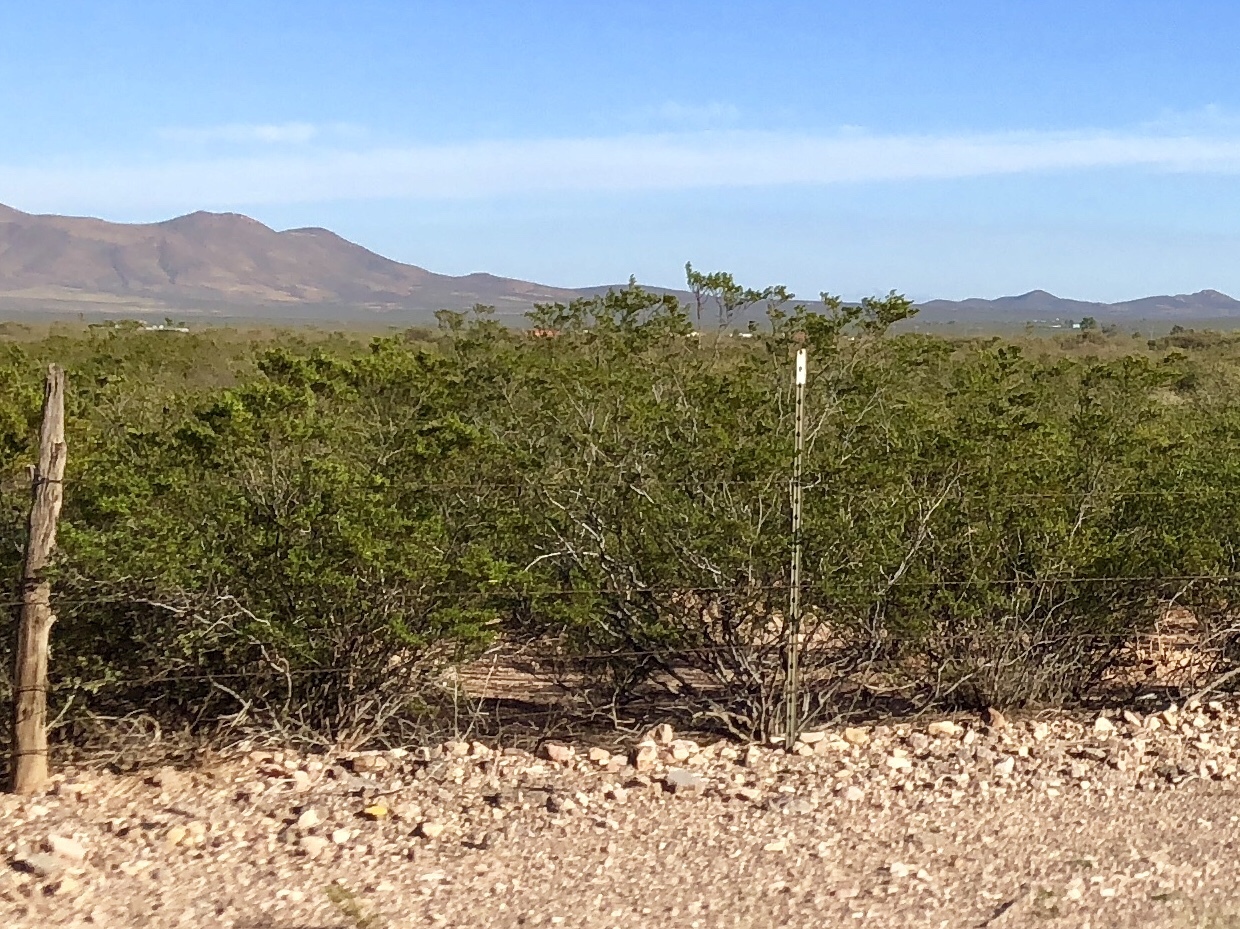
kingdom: Plantae
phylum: Tracheophyta
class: Magnoliopsida
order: Zygophyllales
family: Zygophyllaceae
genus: Larrea
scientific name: Larrea tridentata
